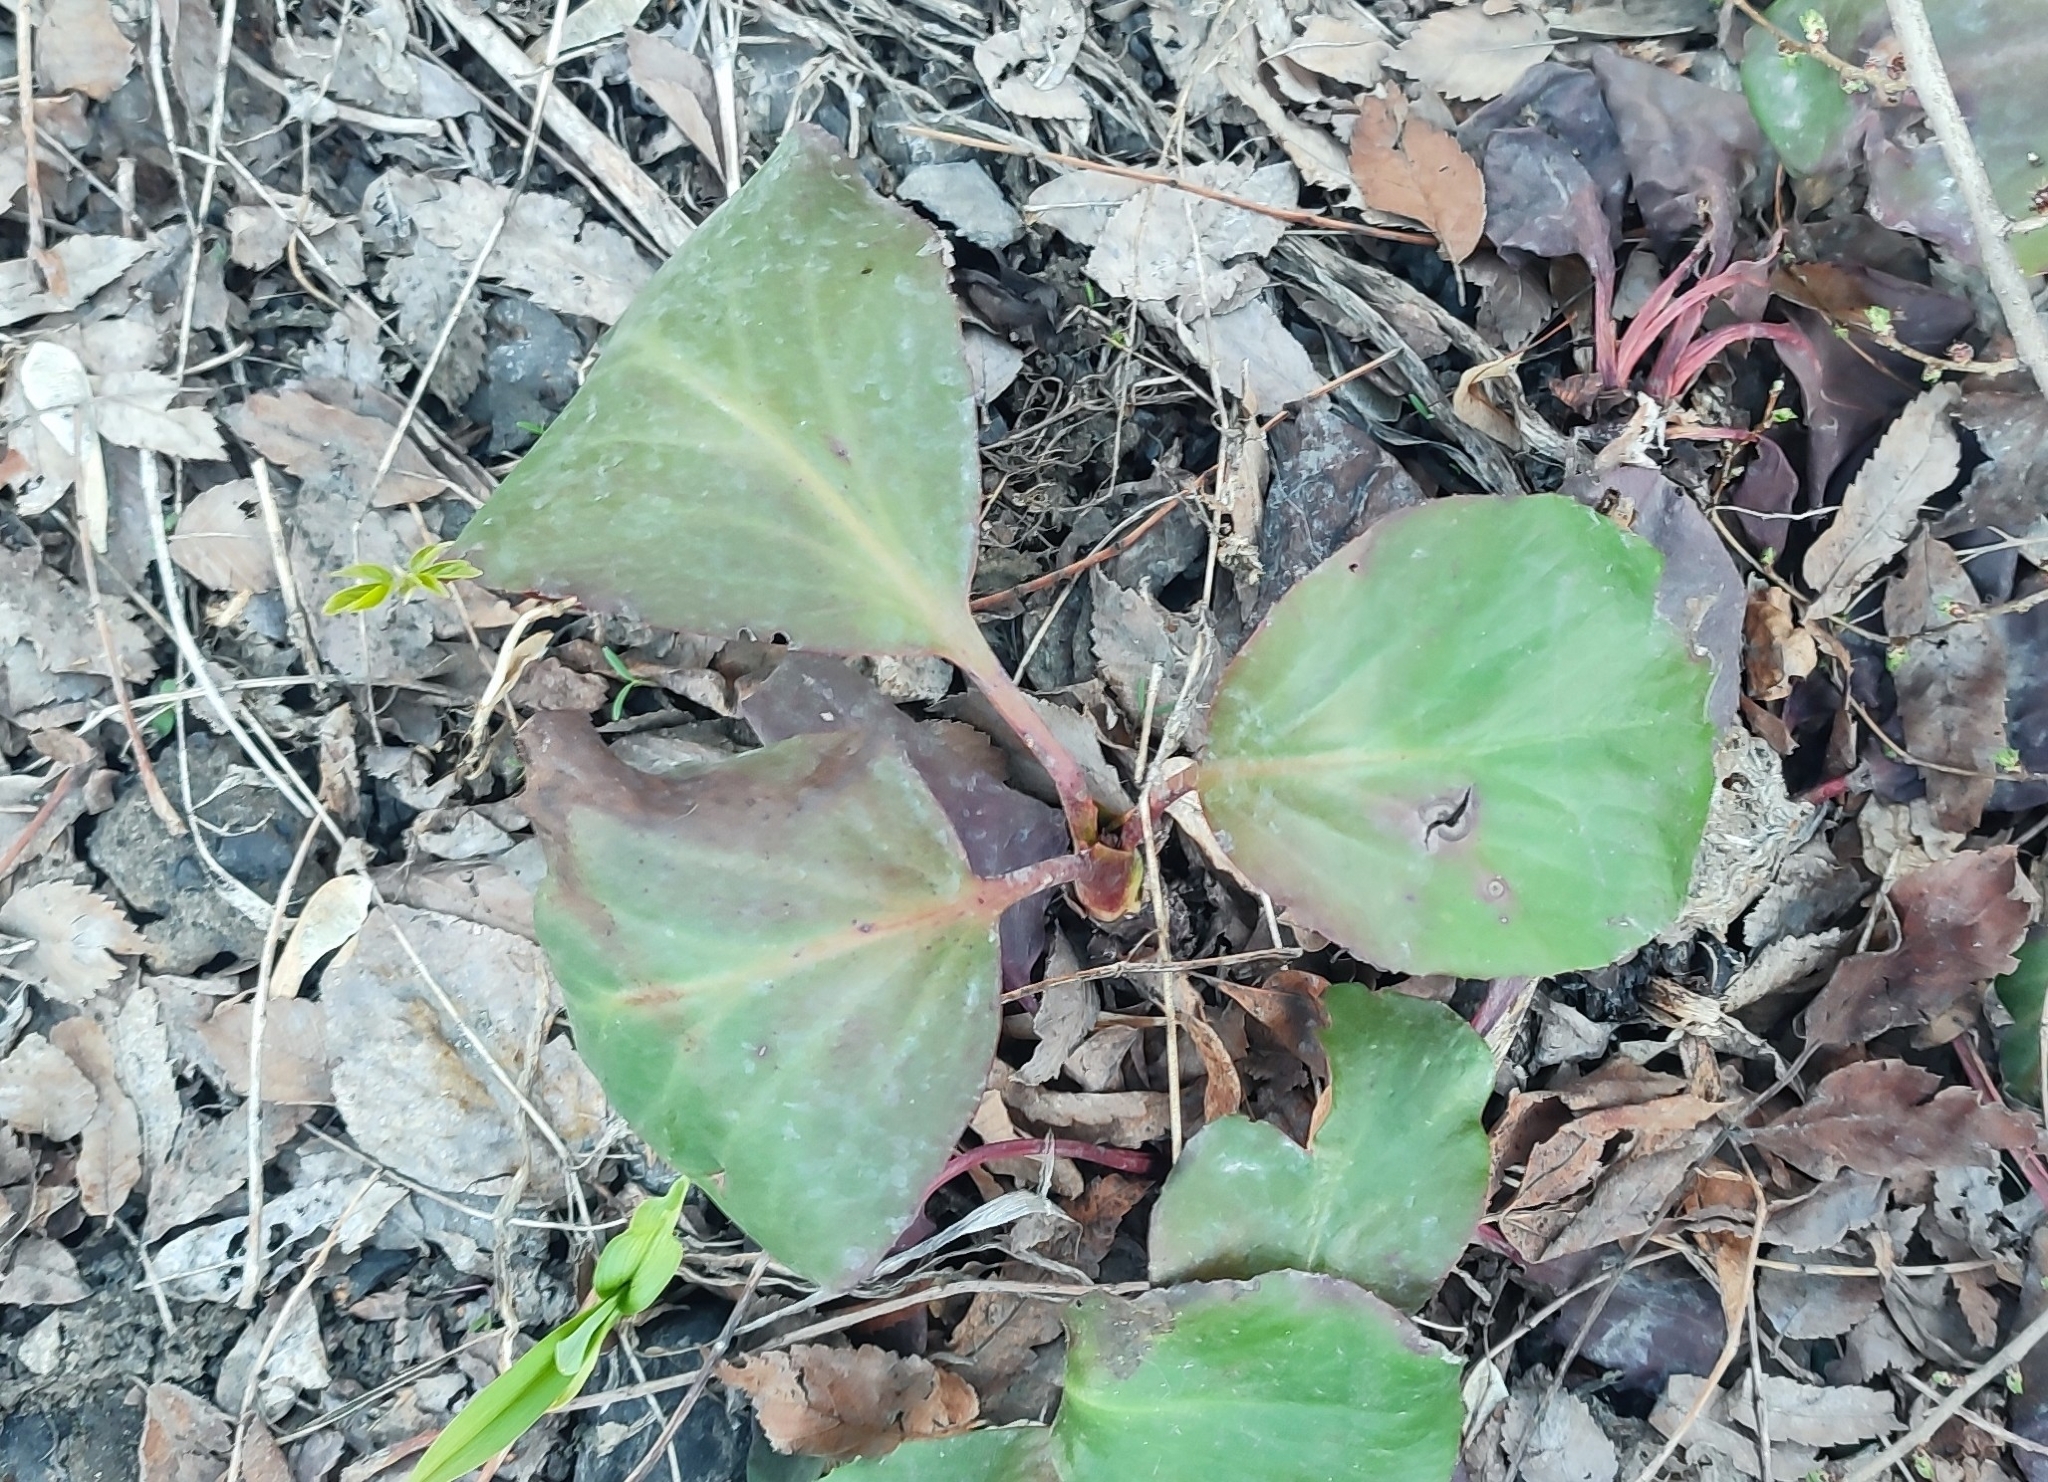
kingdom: Plantae
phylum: Tracheophyta
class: Magnoliopsida
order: Saxifragales
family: Saxifragaceae
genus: Bergenia
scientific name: Bergenia crassifolia
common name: Elephant-ears
